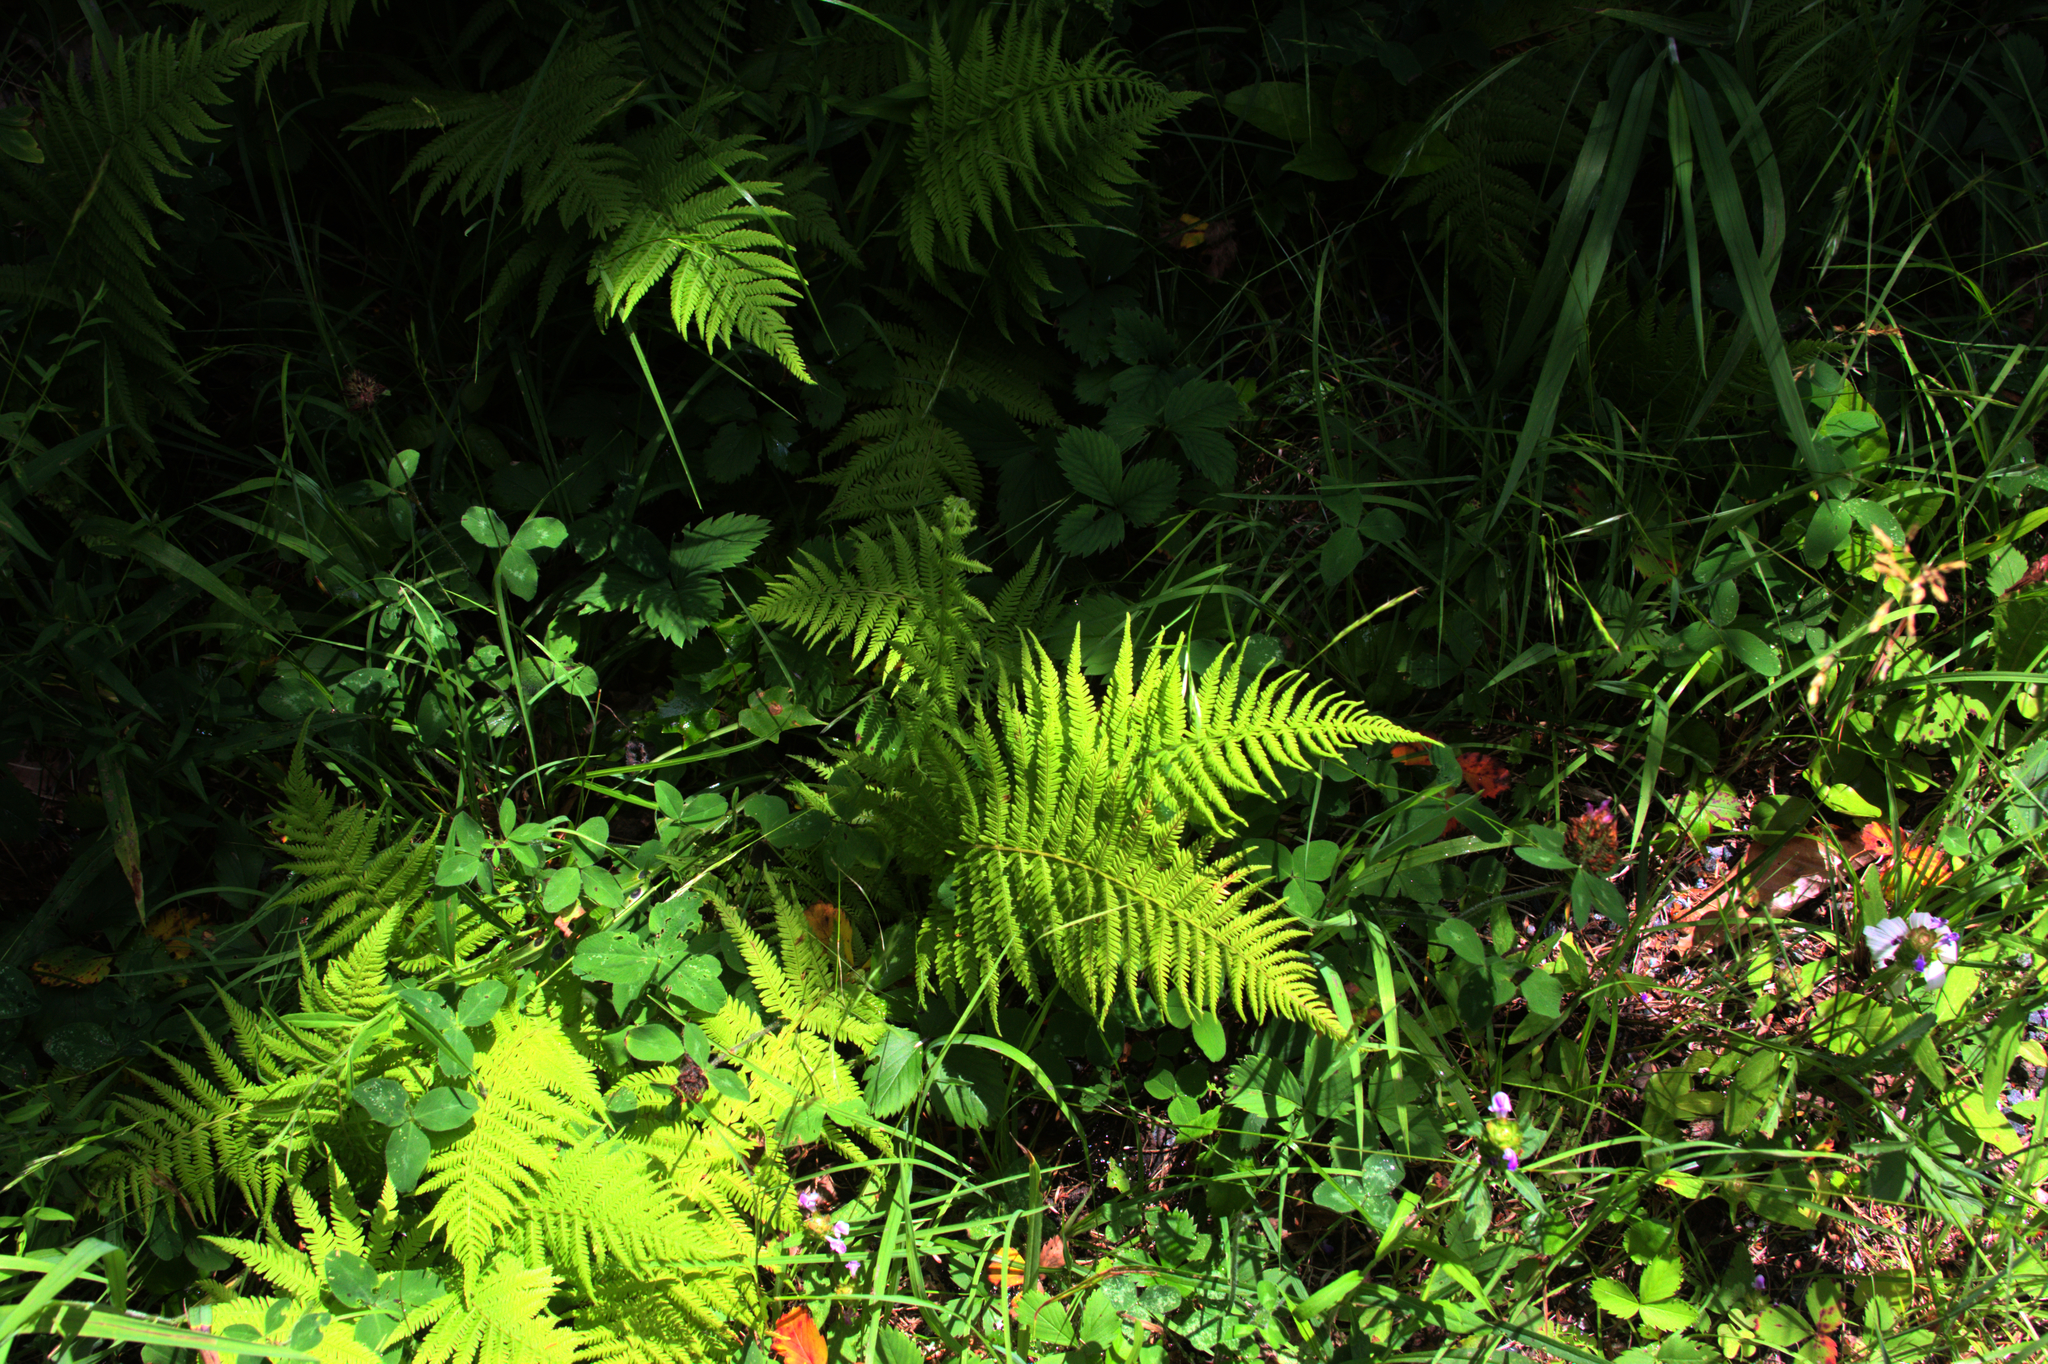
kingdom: Plantae
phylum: Tracheophyta
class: Polypodiopsida
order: Polypodiales
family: Thelypteridaceae
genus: Amauropelta
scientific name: Amauropelta noveboracensis
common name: New york fern
